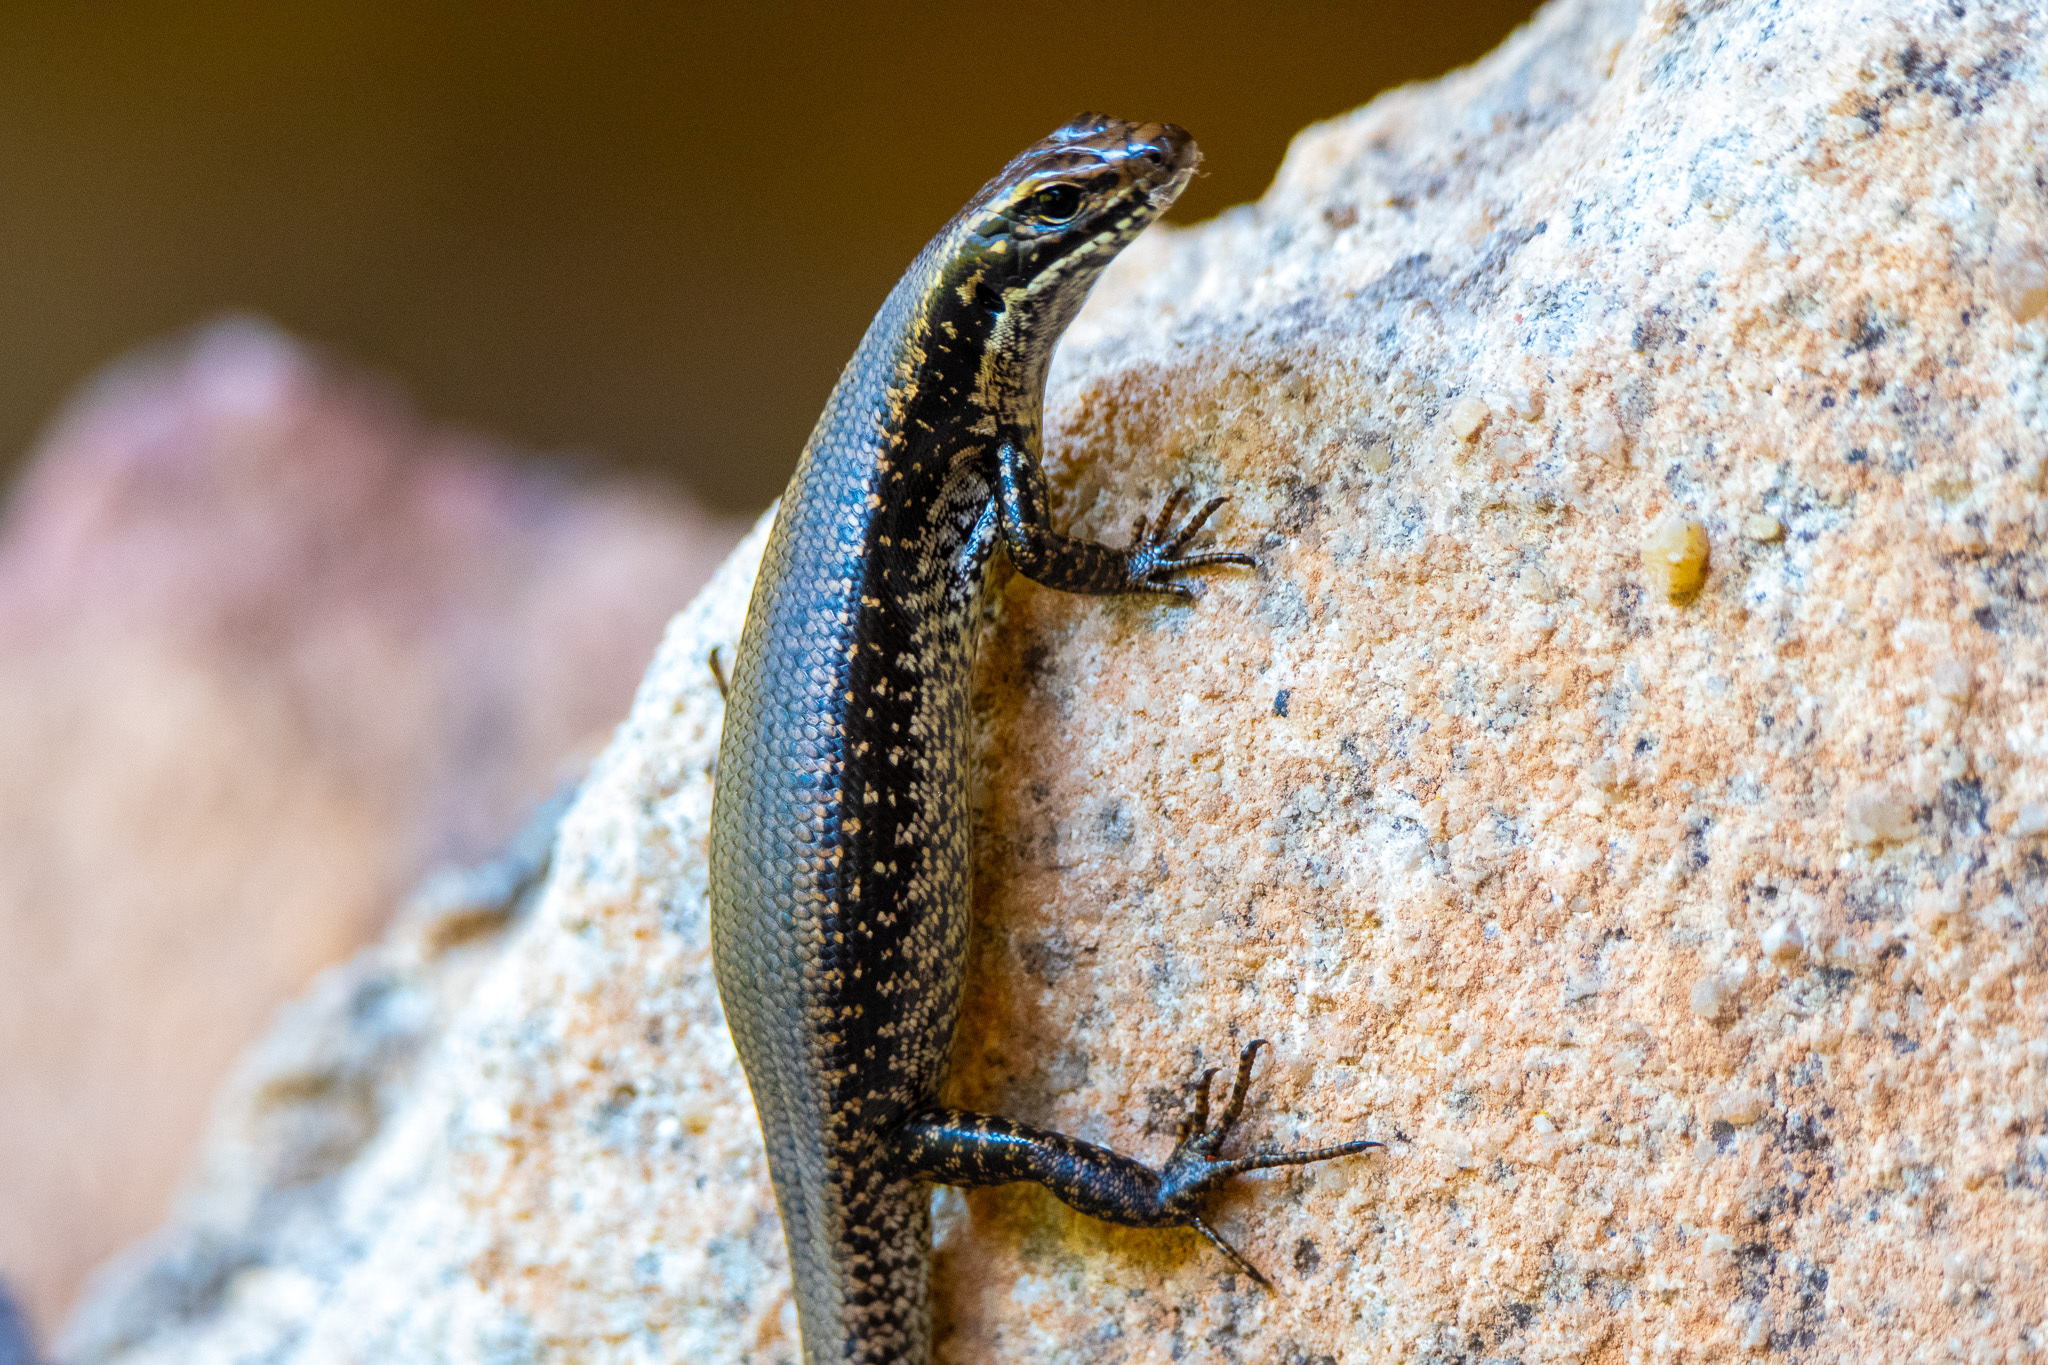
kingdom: Animalia
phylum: Chordata
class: Squamata
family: Scincidae
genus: Eulamprus
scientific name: Eulamprus heatwolei
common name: Warm-temperate water-skink
